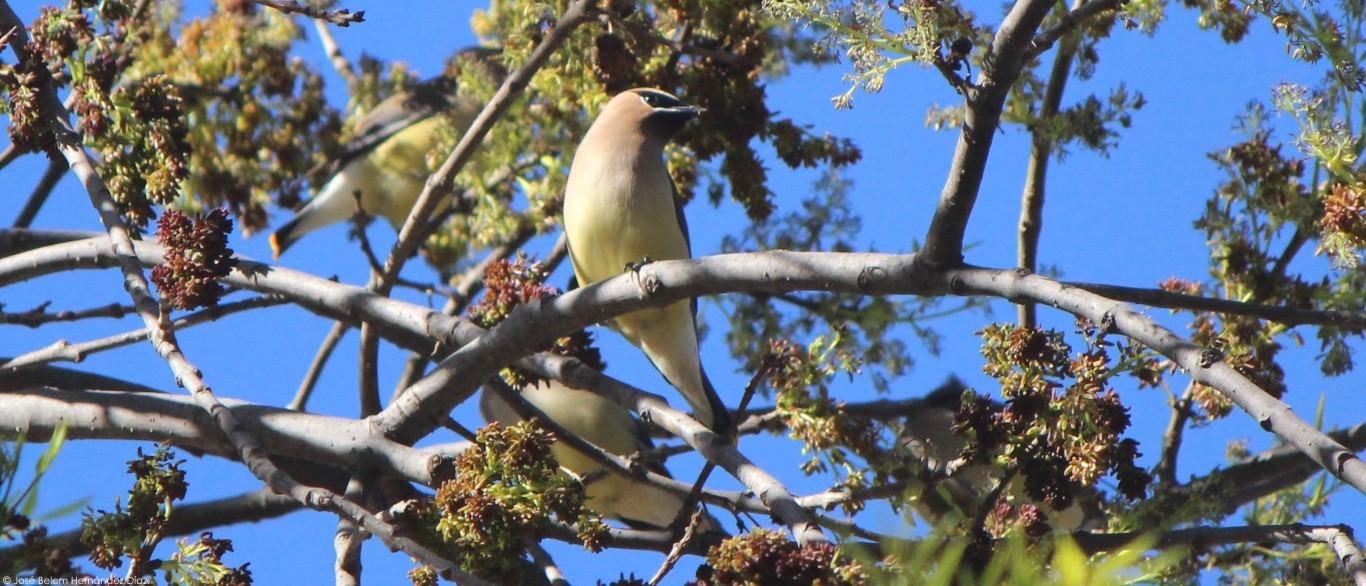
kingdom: Animalia
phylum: Chordata
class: Aves
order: Passeriformes
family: Bombycillidae
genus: Bombycilla
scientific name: Bombycilla cedrorum
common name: Cedar waxwing
